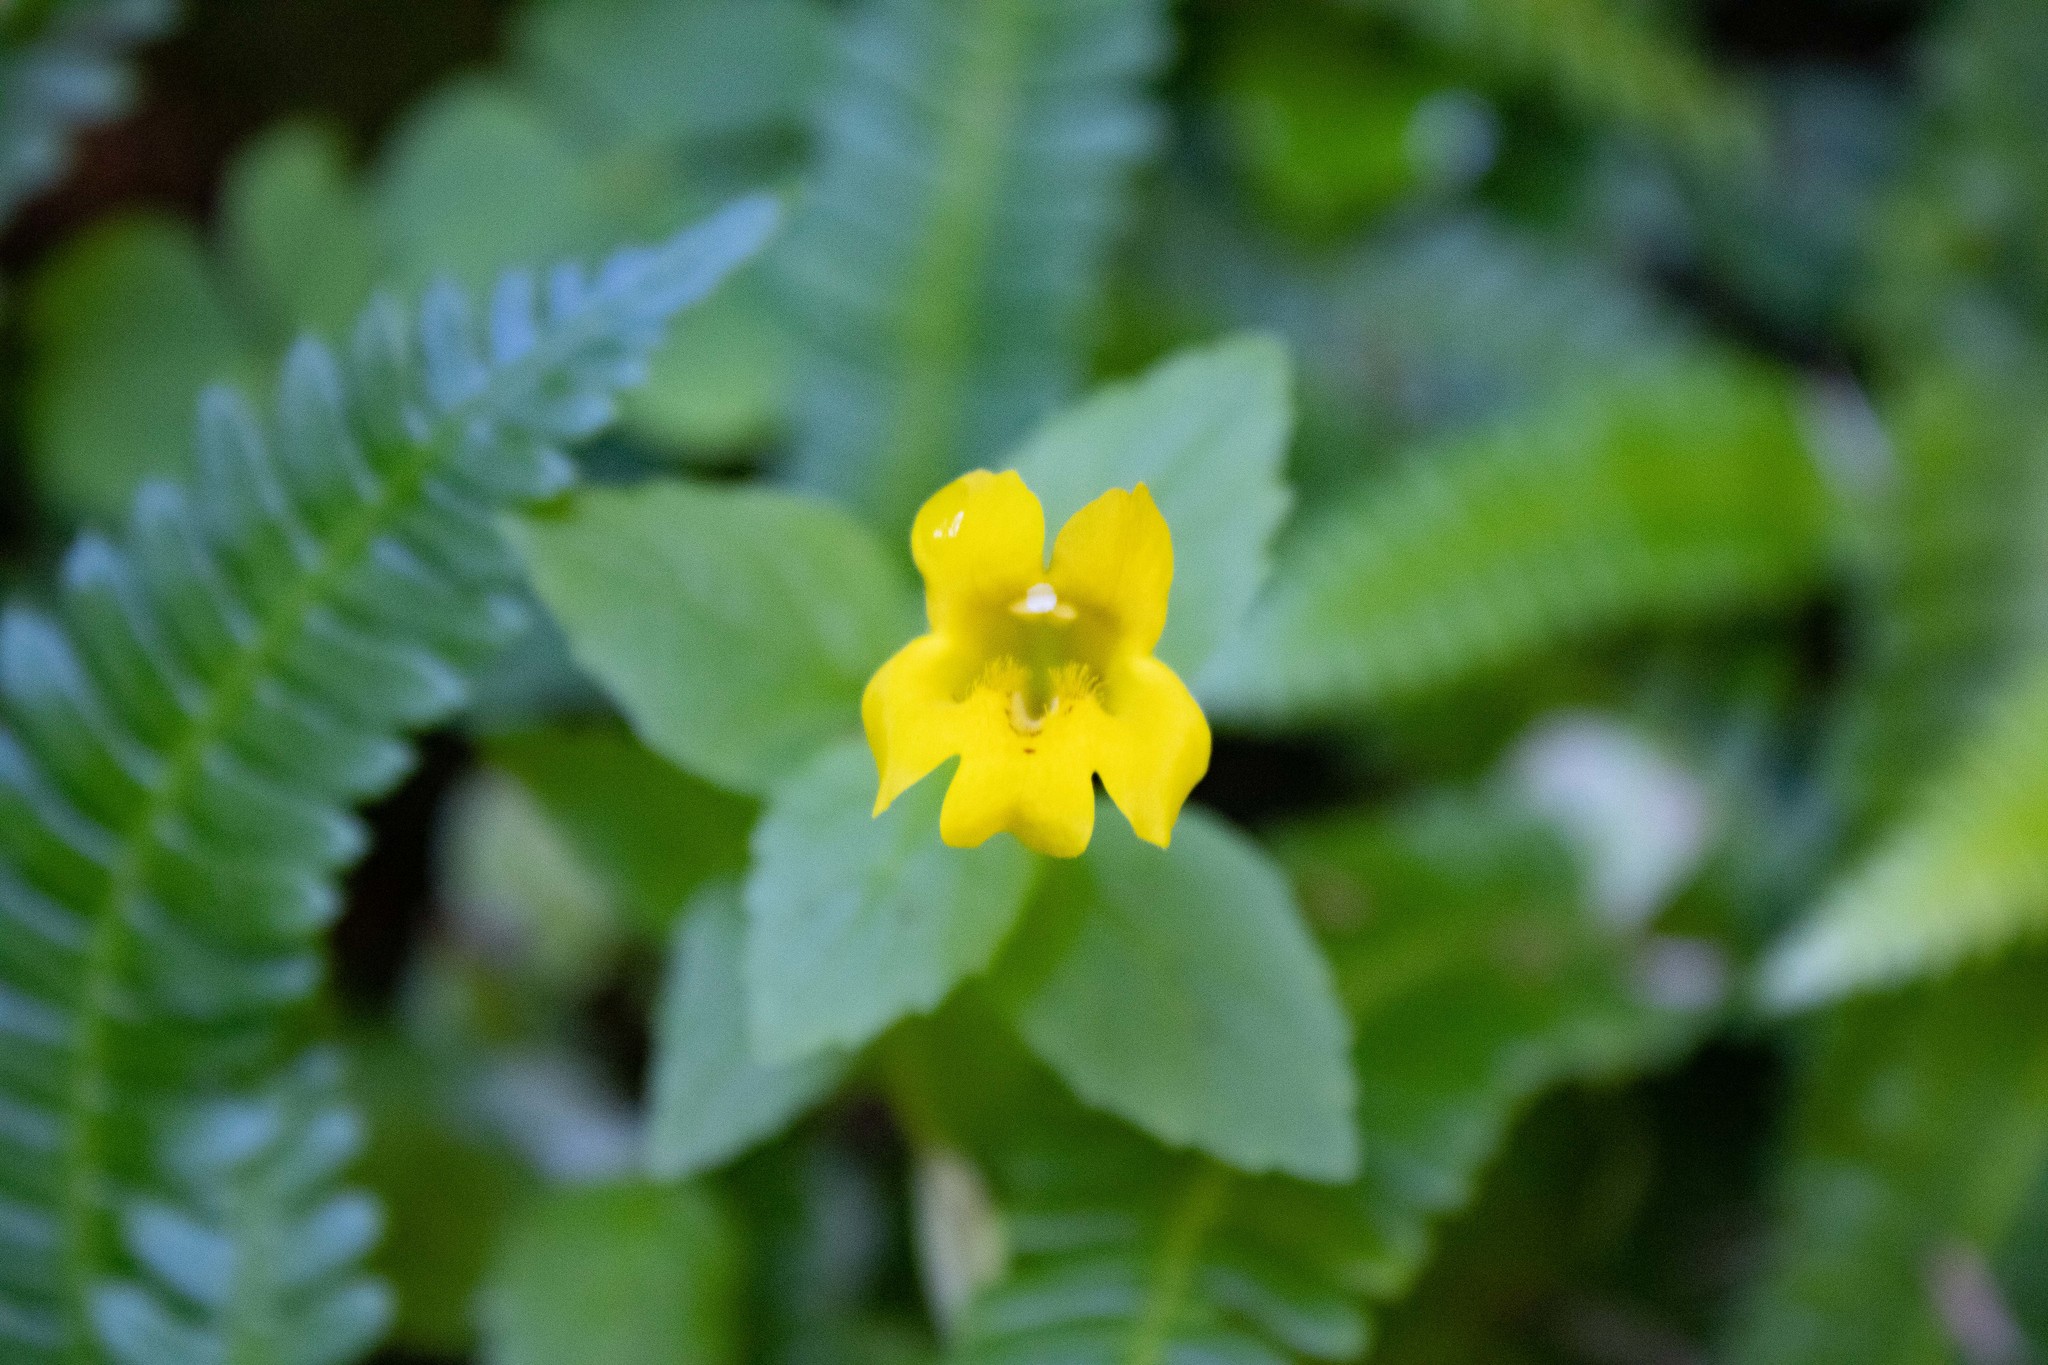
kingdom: Plantae
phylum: Tracheophyta
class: Magnoliopsida
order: Lamiales
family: Phrymaceae
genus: Erythranthe
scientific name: Erythranthe dentata
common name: Coastal monkeyflower
